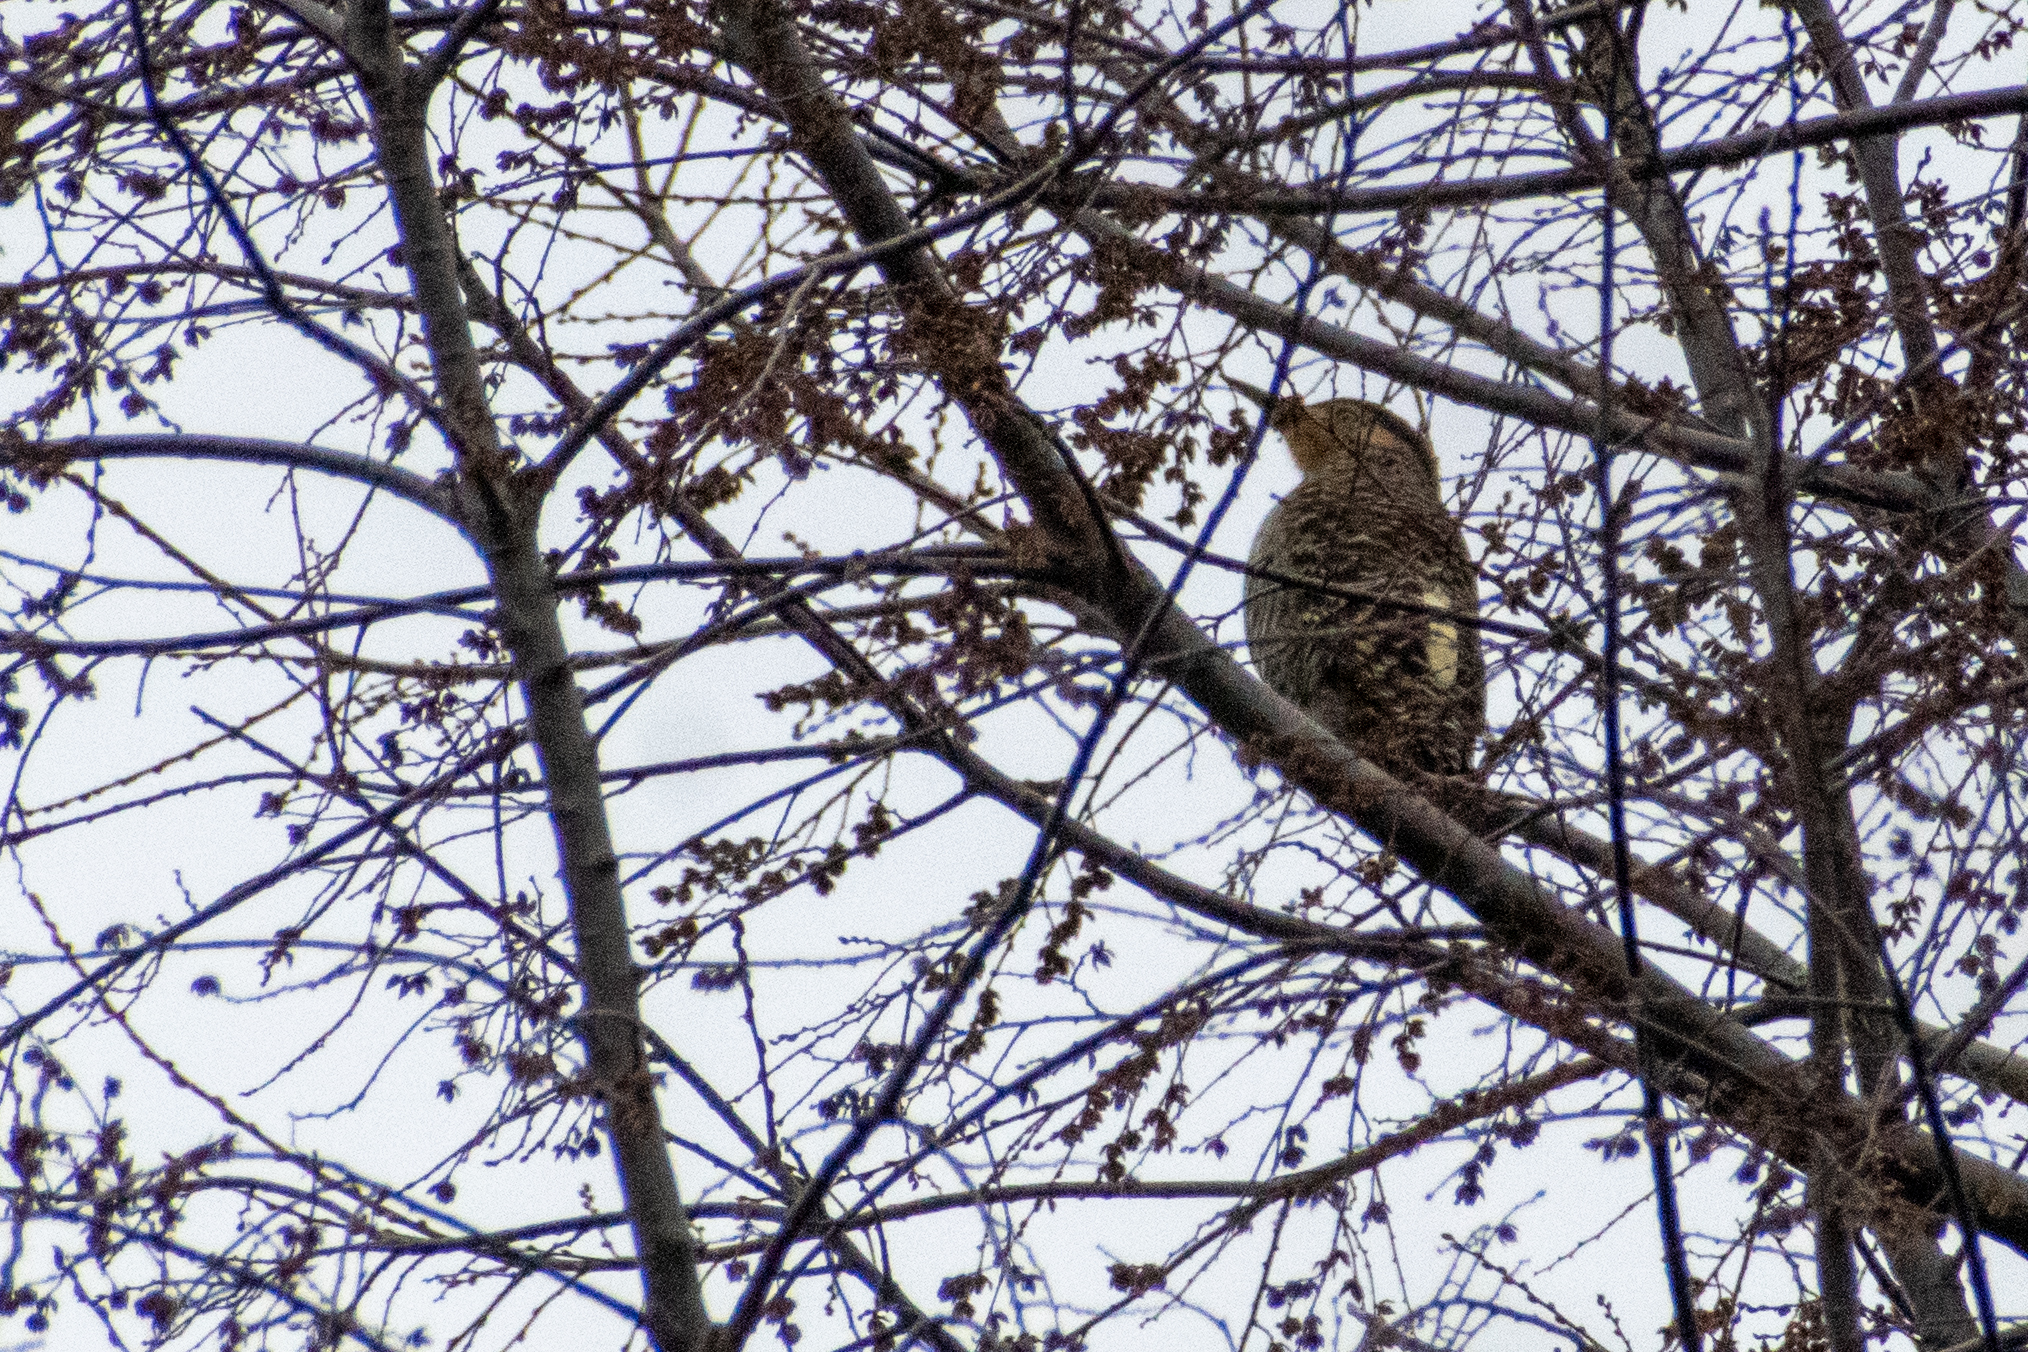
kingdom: Animalia
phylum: Chordata
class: Aves
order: Piciformes
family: Picidae
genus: Colaptes
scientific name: Colaptes pitius
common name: Chilean flicker
